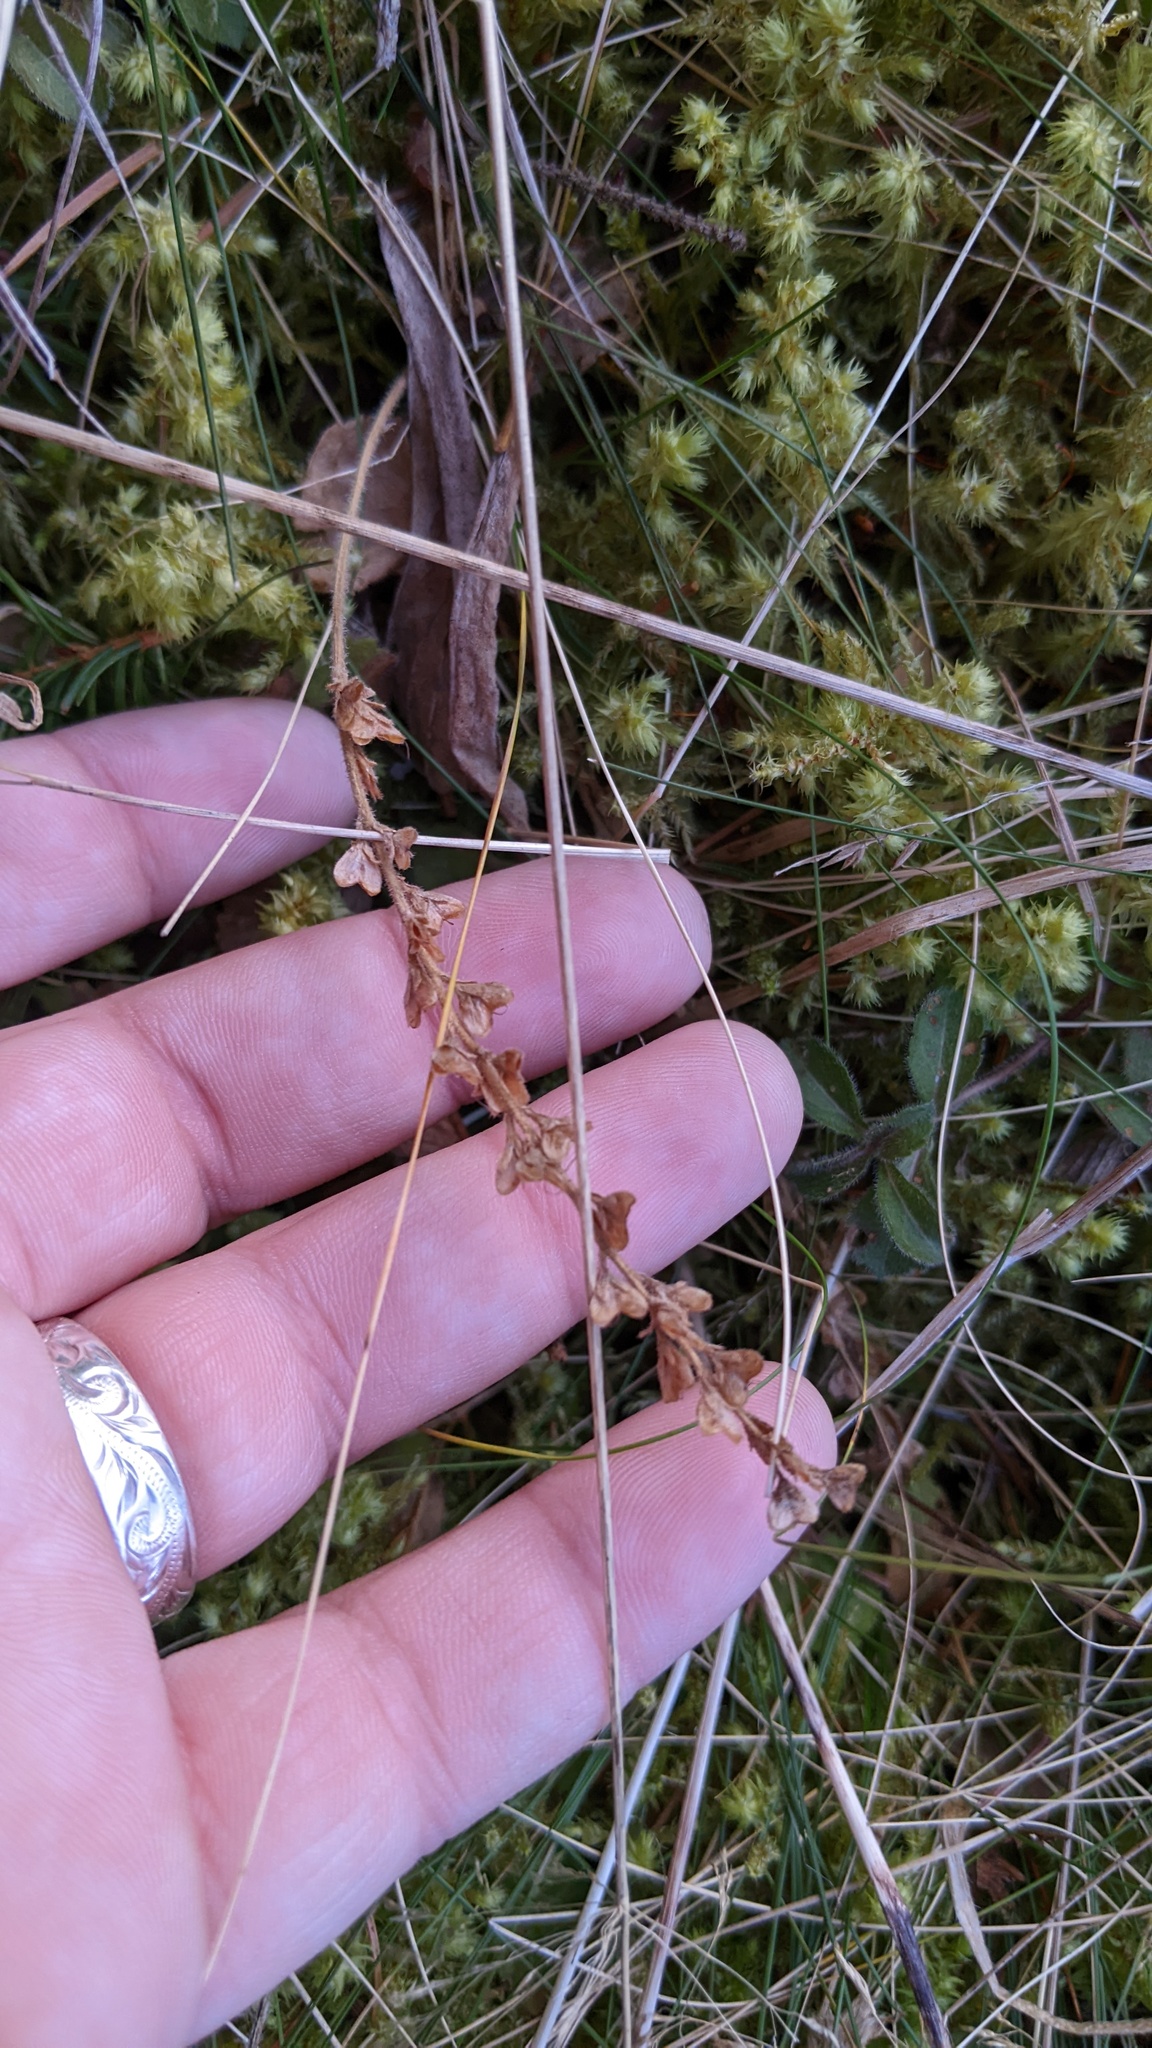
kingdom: Plantae
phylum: Tracheophyta
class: Magnoliopsida
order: Lamiales
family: Plantaginaceae
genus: Veronica
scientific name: Veronica officinalis
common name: Common speedwell
